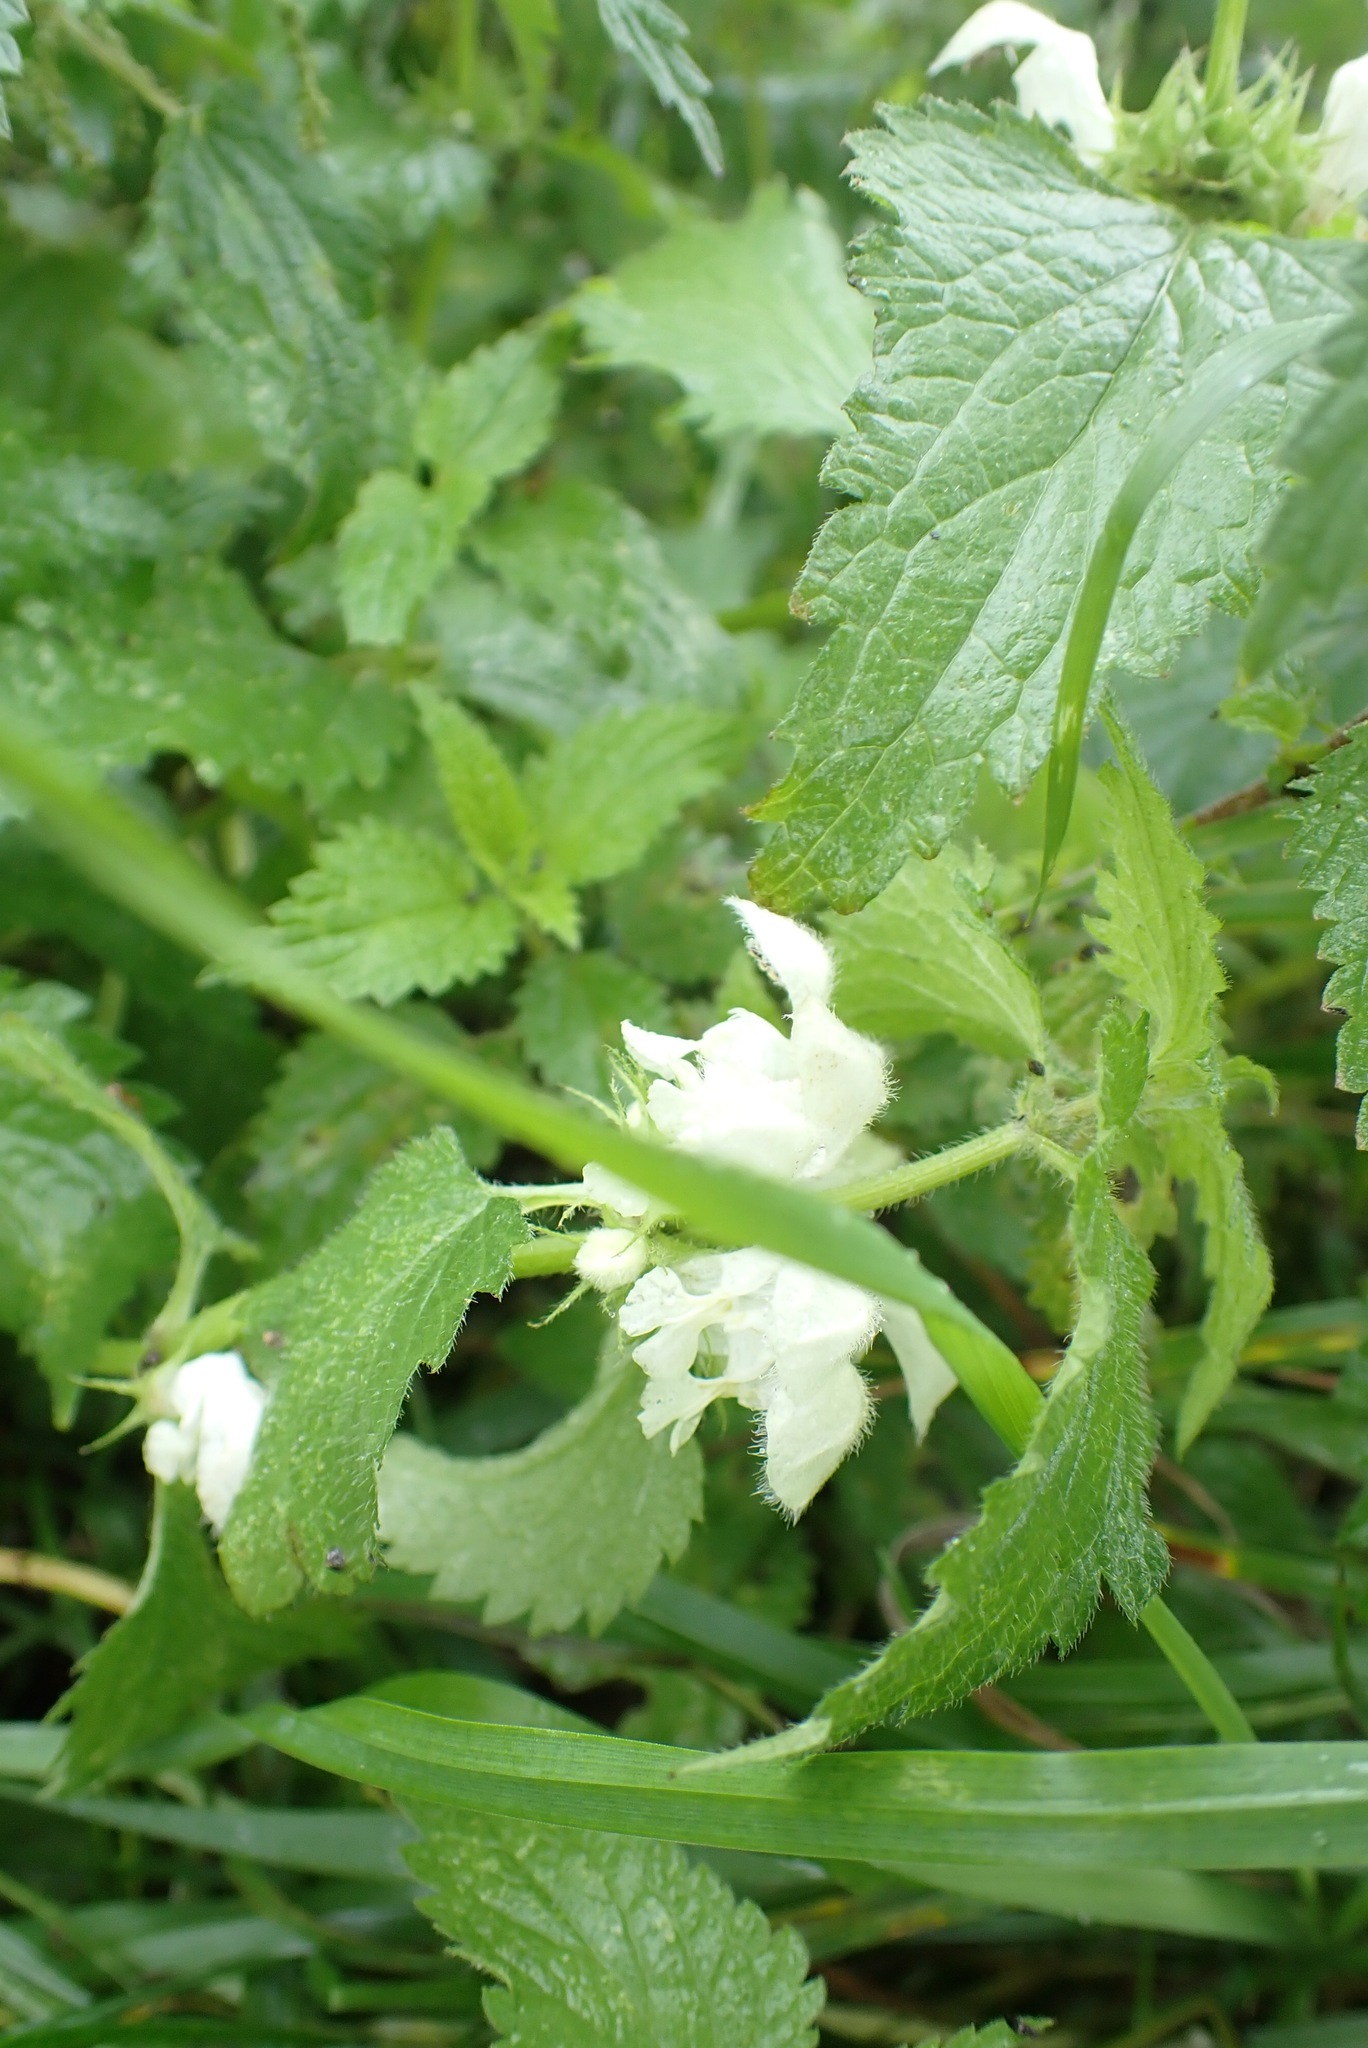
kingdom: Plantae
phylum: Tracheophyta
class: Magnoliopsida
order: Lamiales
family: Lamiaceae
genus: Lamium
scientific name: Lamium album
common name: White dead-nettle
